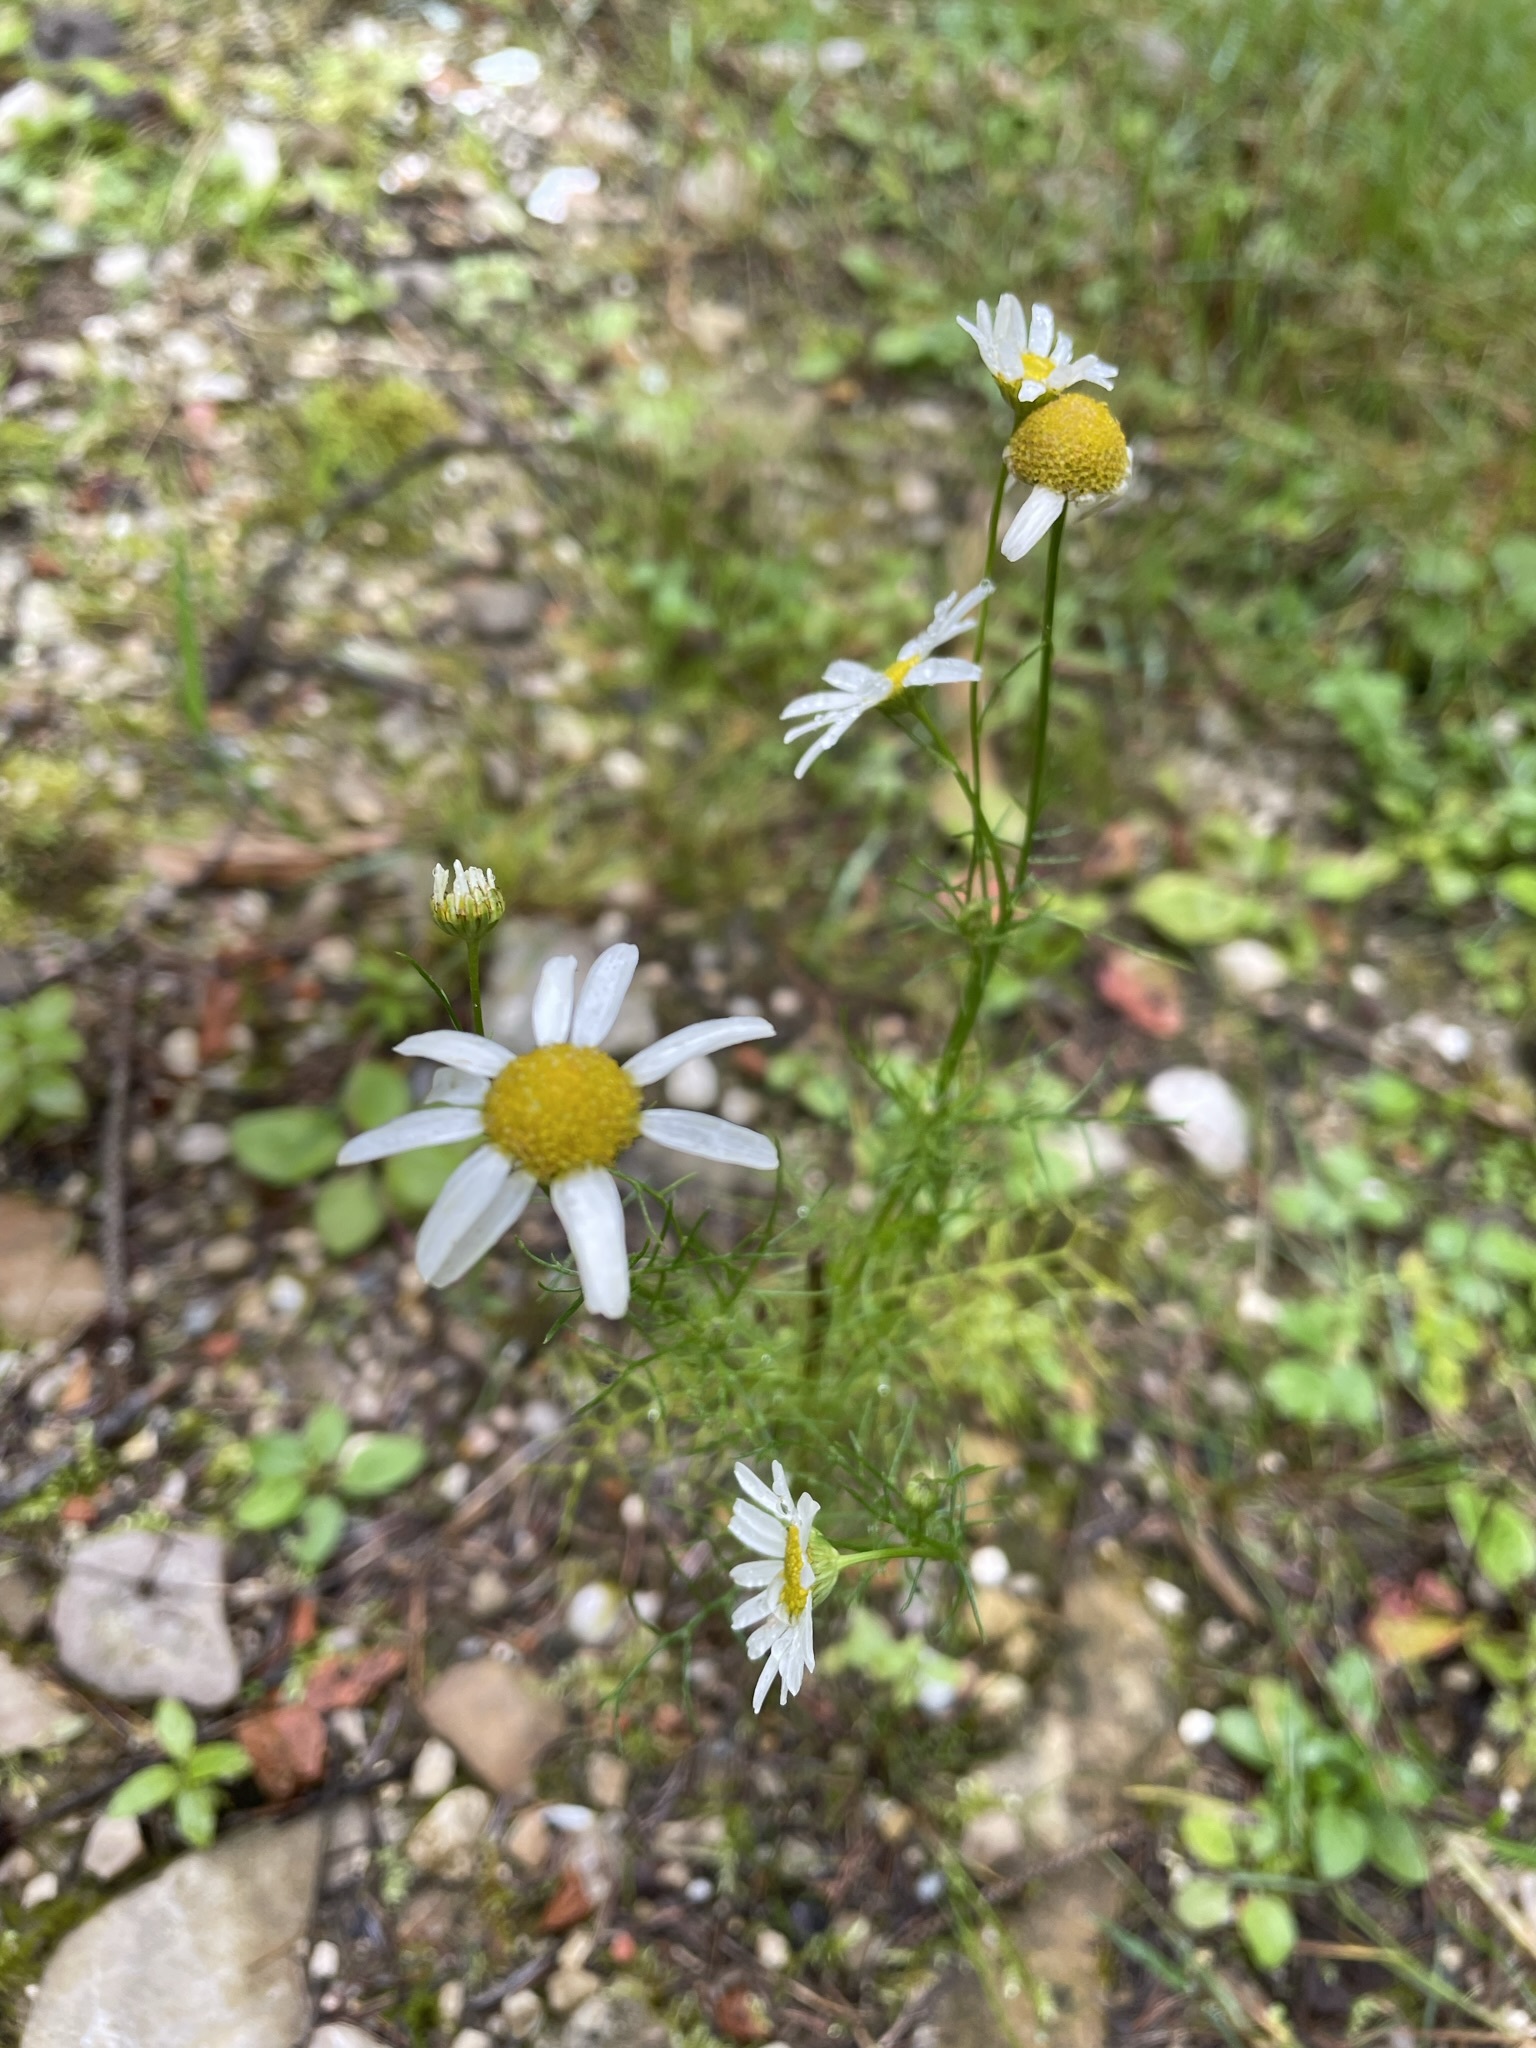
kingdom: Plantae
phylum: Tracheophyta
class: Magnoliopsida
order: Asterales
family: Asteraceae
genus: Tripleurospermum
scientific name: Tripleurospermum inodorum
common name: Scentless mayweed
